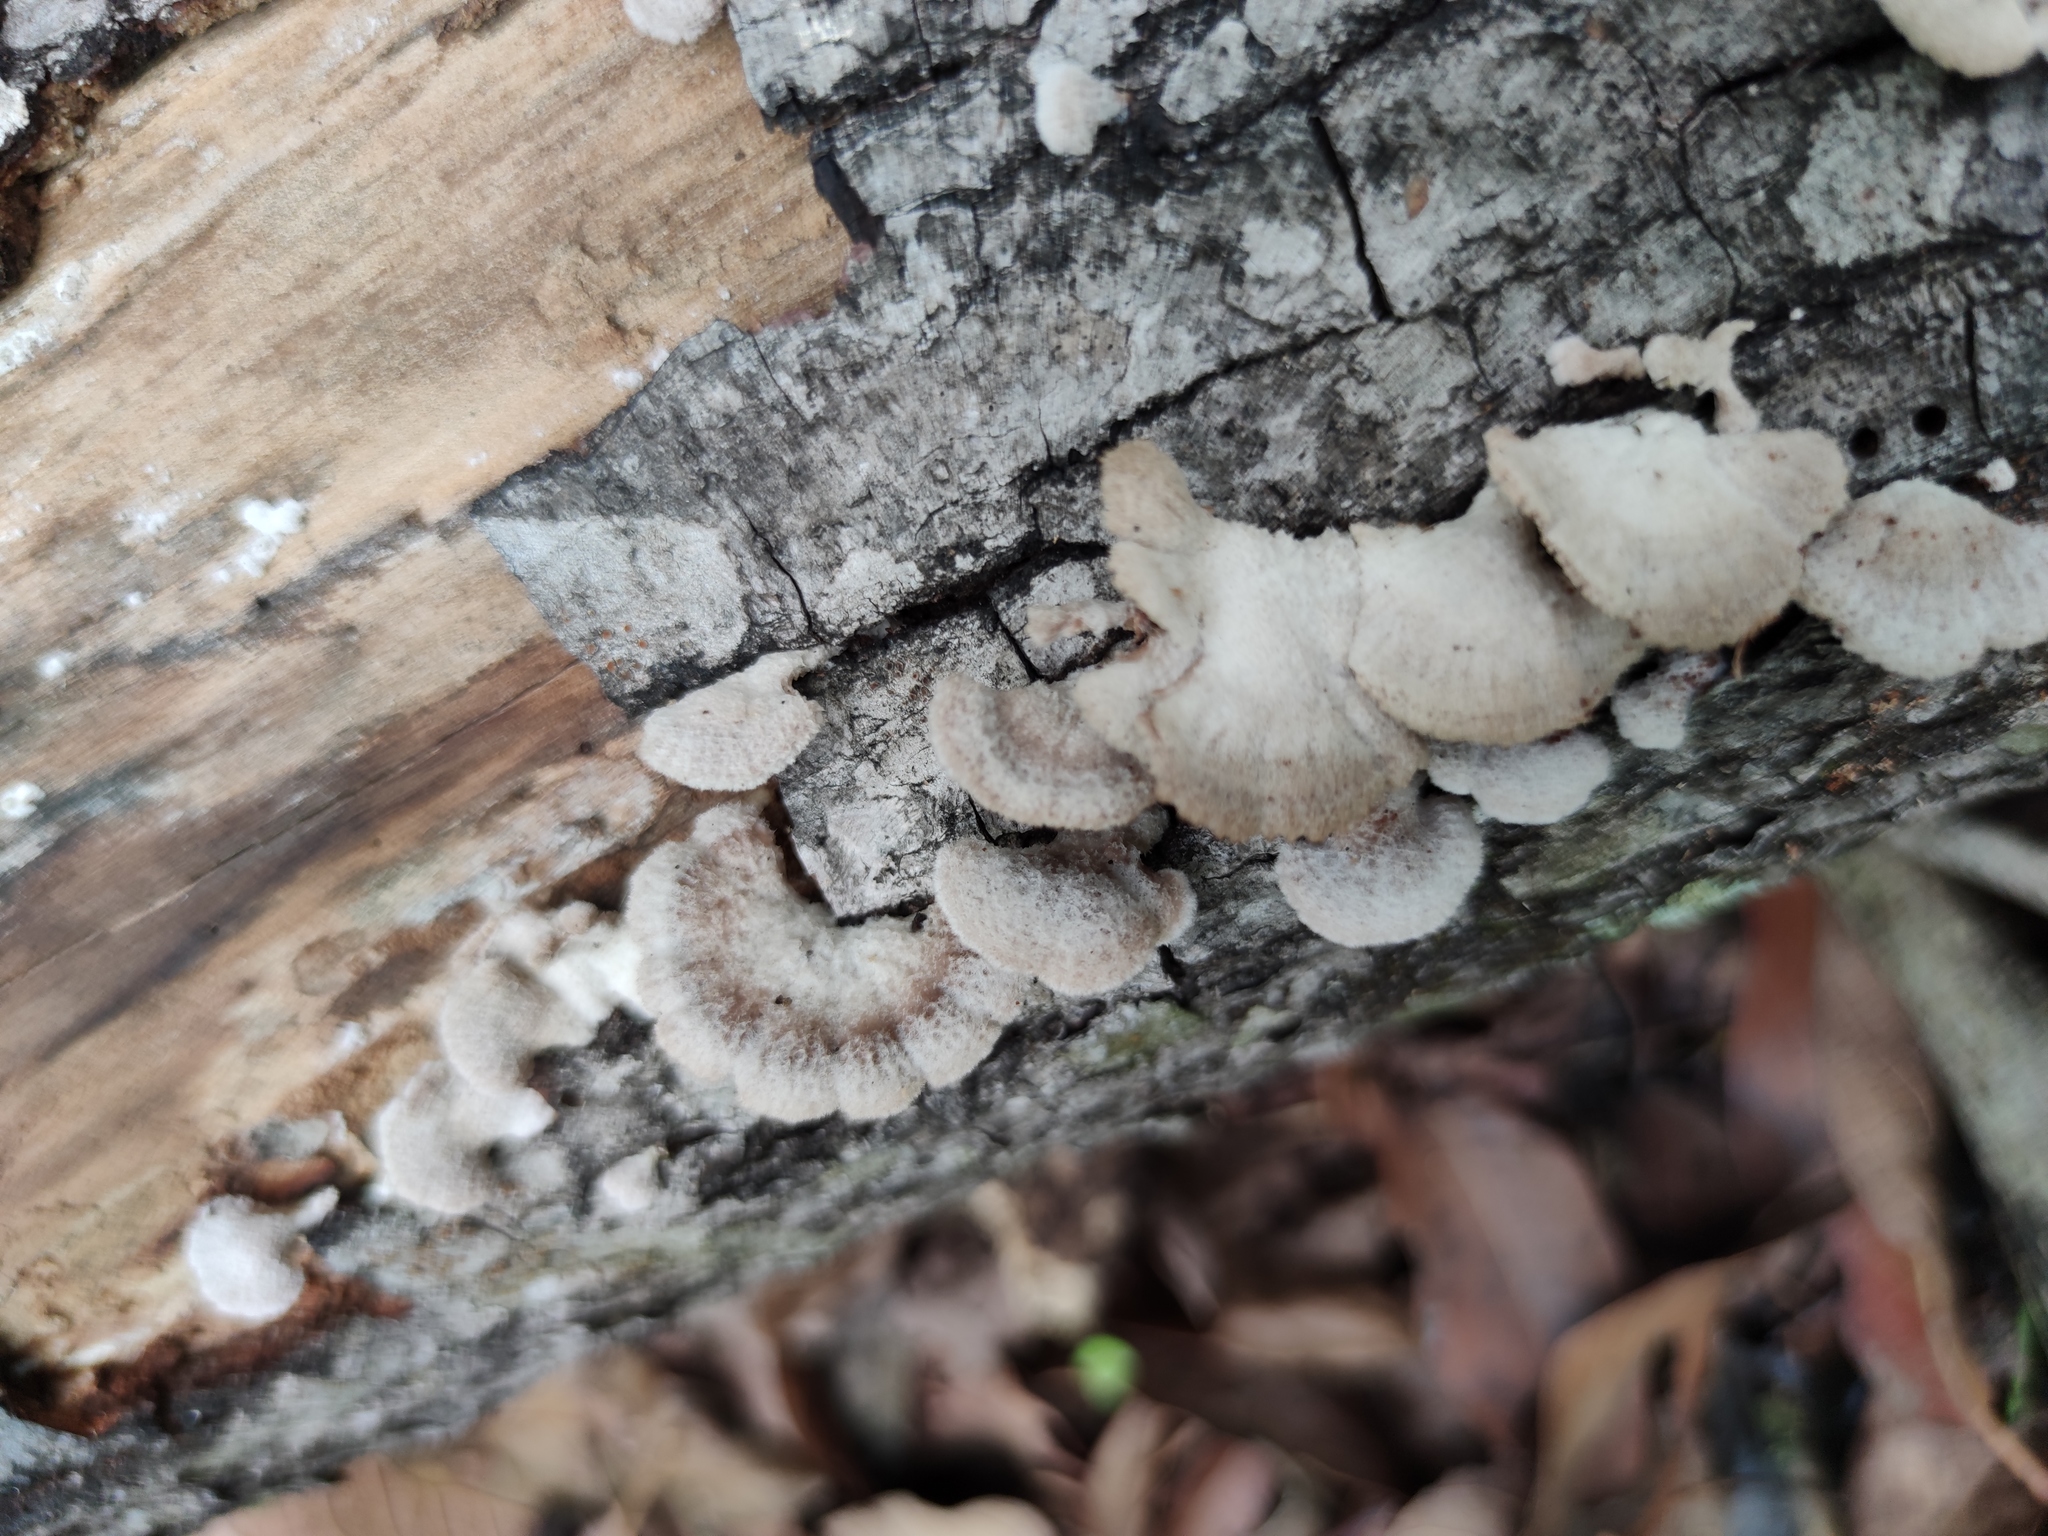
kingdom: Fungi
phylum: Basidiomycota
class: Agaricomycetes
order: Agaricales
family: Schizophyllaceae
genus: Schizophyllum
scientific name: Schizophyllum commune
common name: Common porecrust
